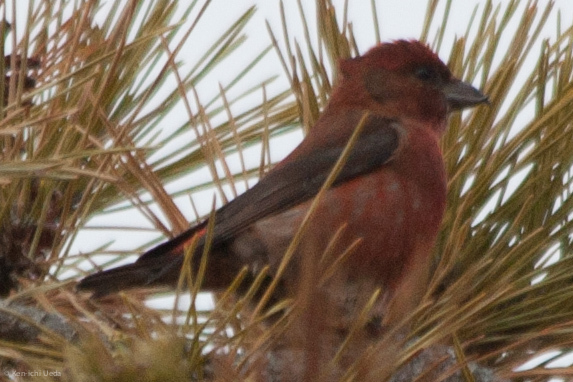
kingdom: Animalia
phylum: Chordata
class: Aves
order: Passeriformes
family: Fringillidae
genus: Loxia
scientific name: Loxia curvirostra
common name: Red crossbill
